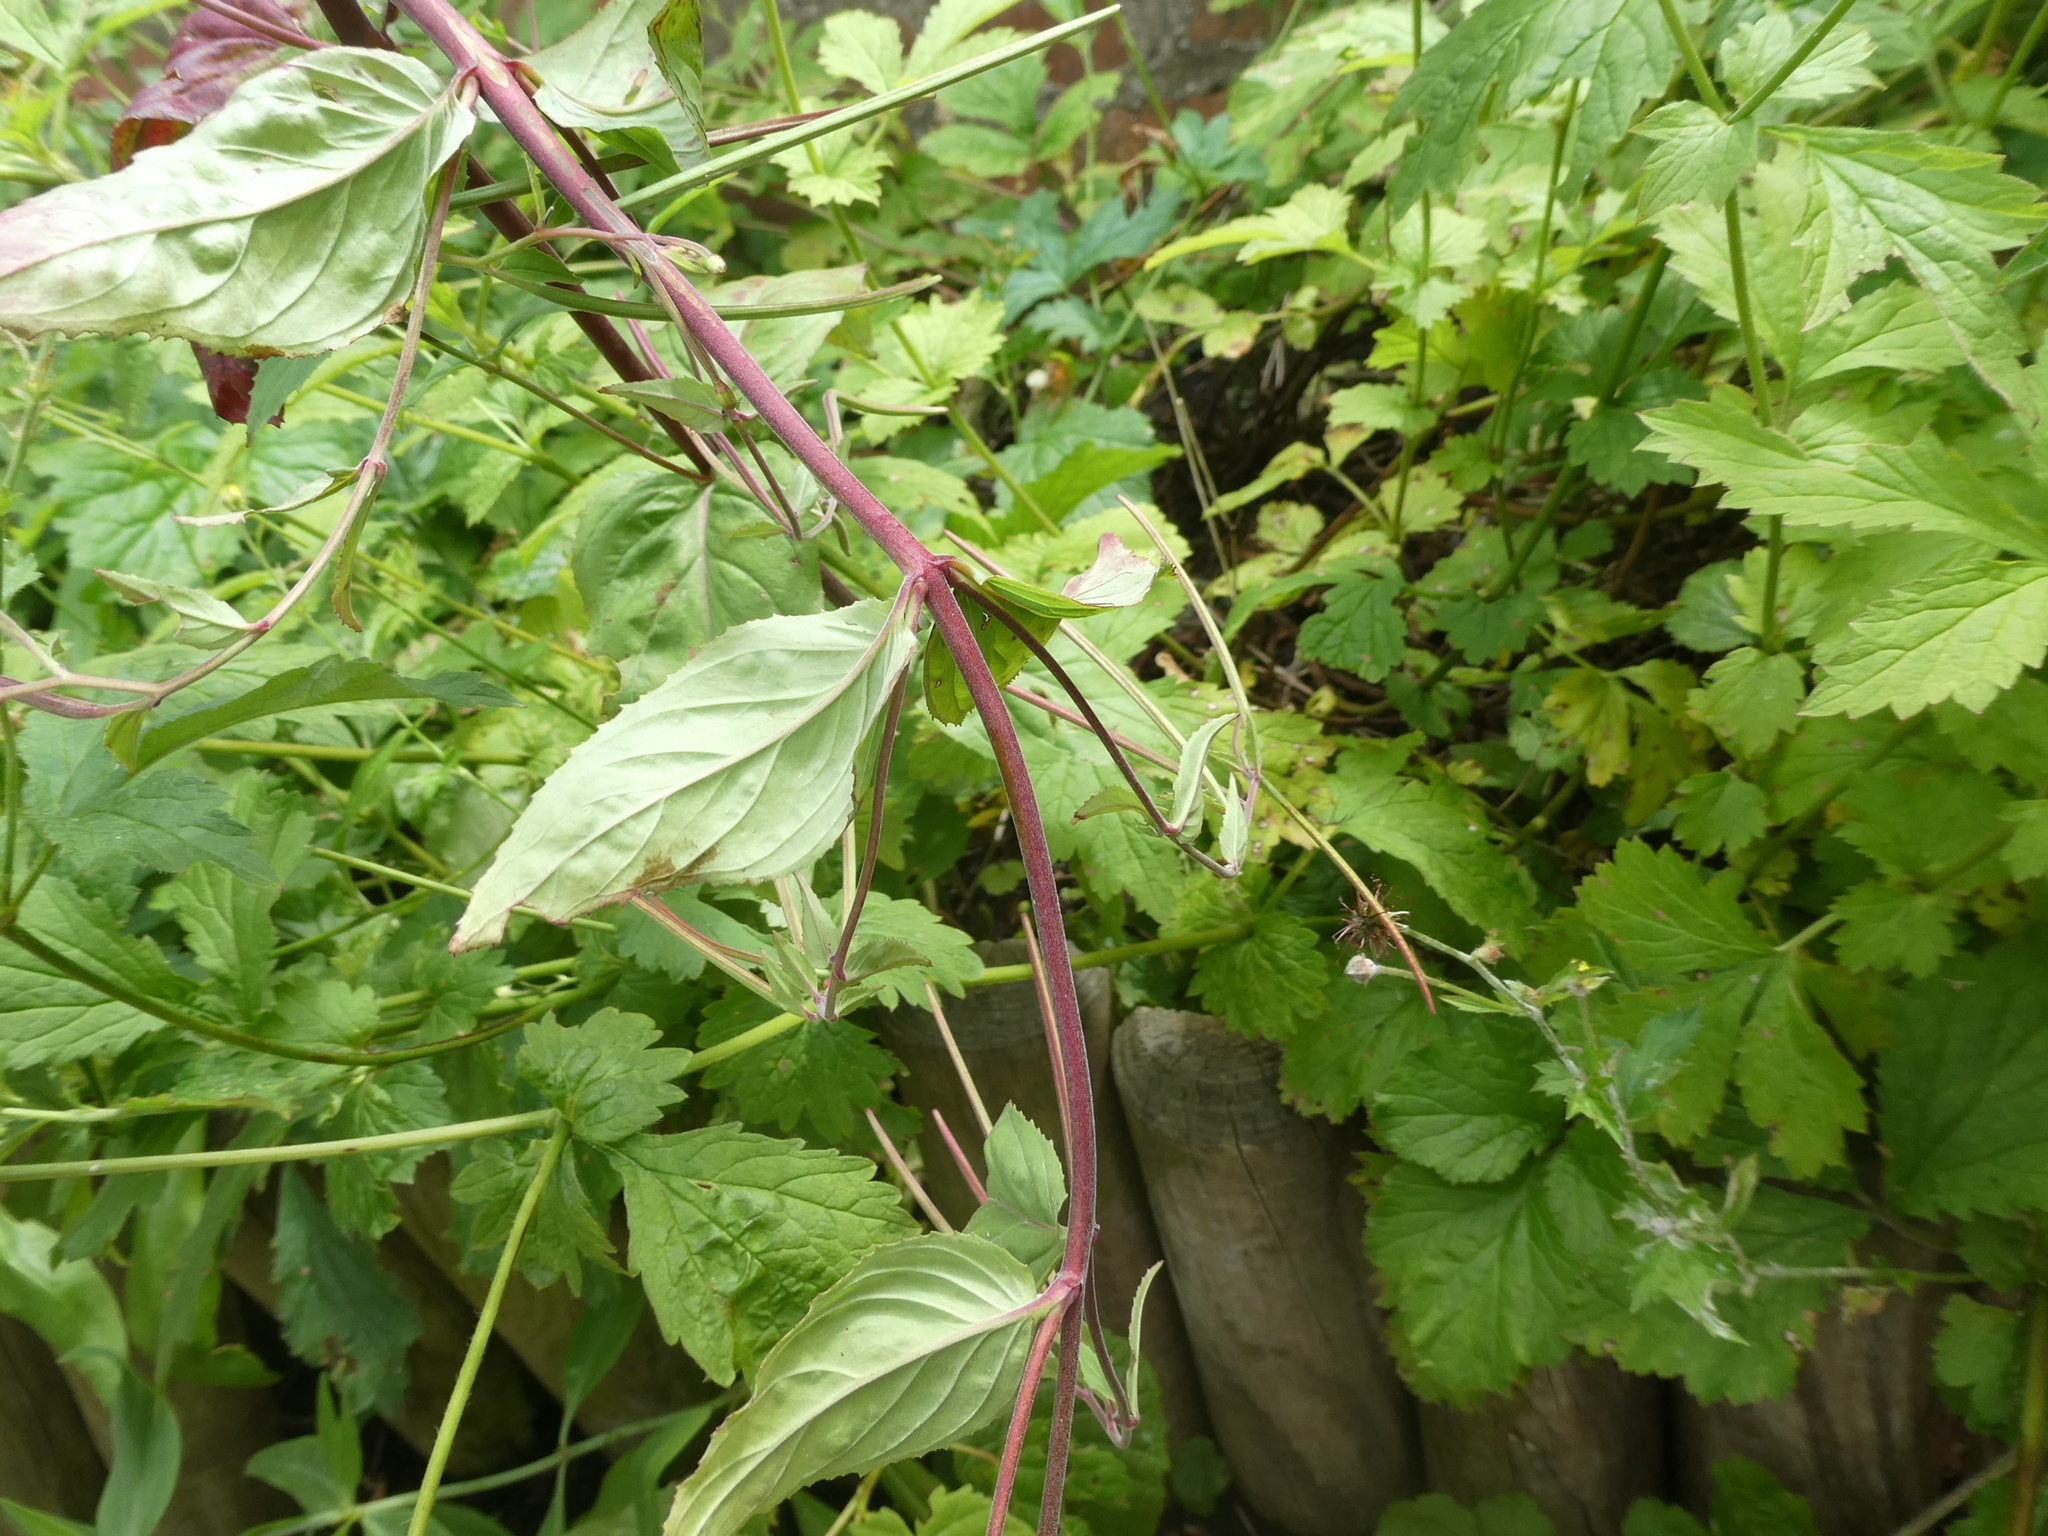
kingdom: Plantae
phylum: Tracheophyta
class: Magnoliopsida
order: Myrtales
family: Onagraceae
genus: Circaea
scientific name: Circaea lutetiana
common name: Enchanter's-nightshade
